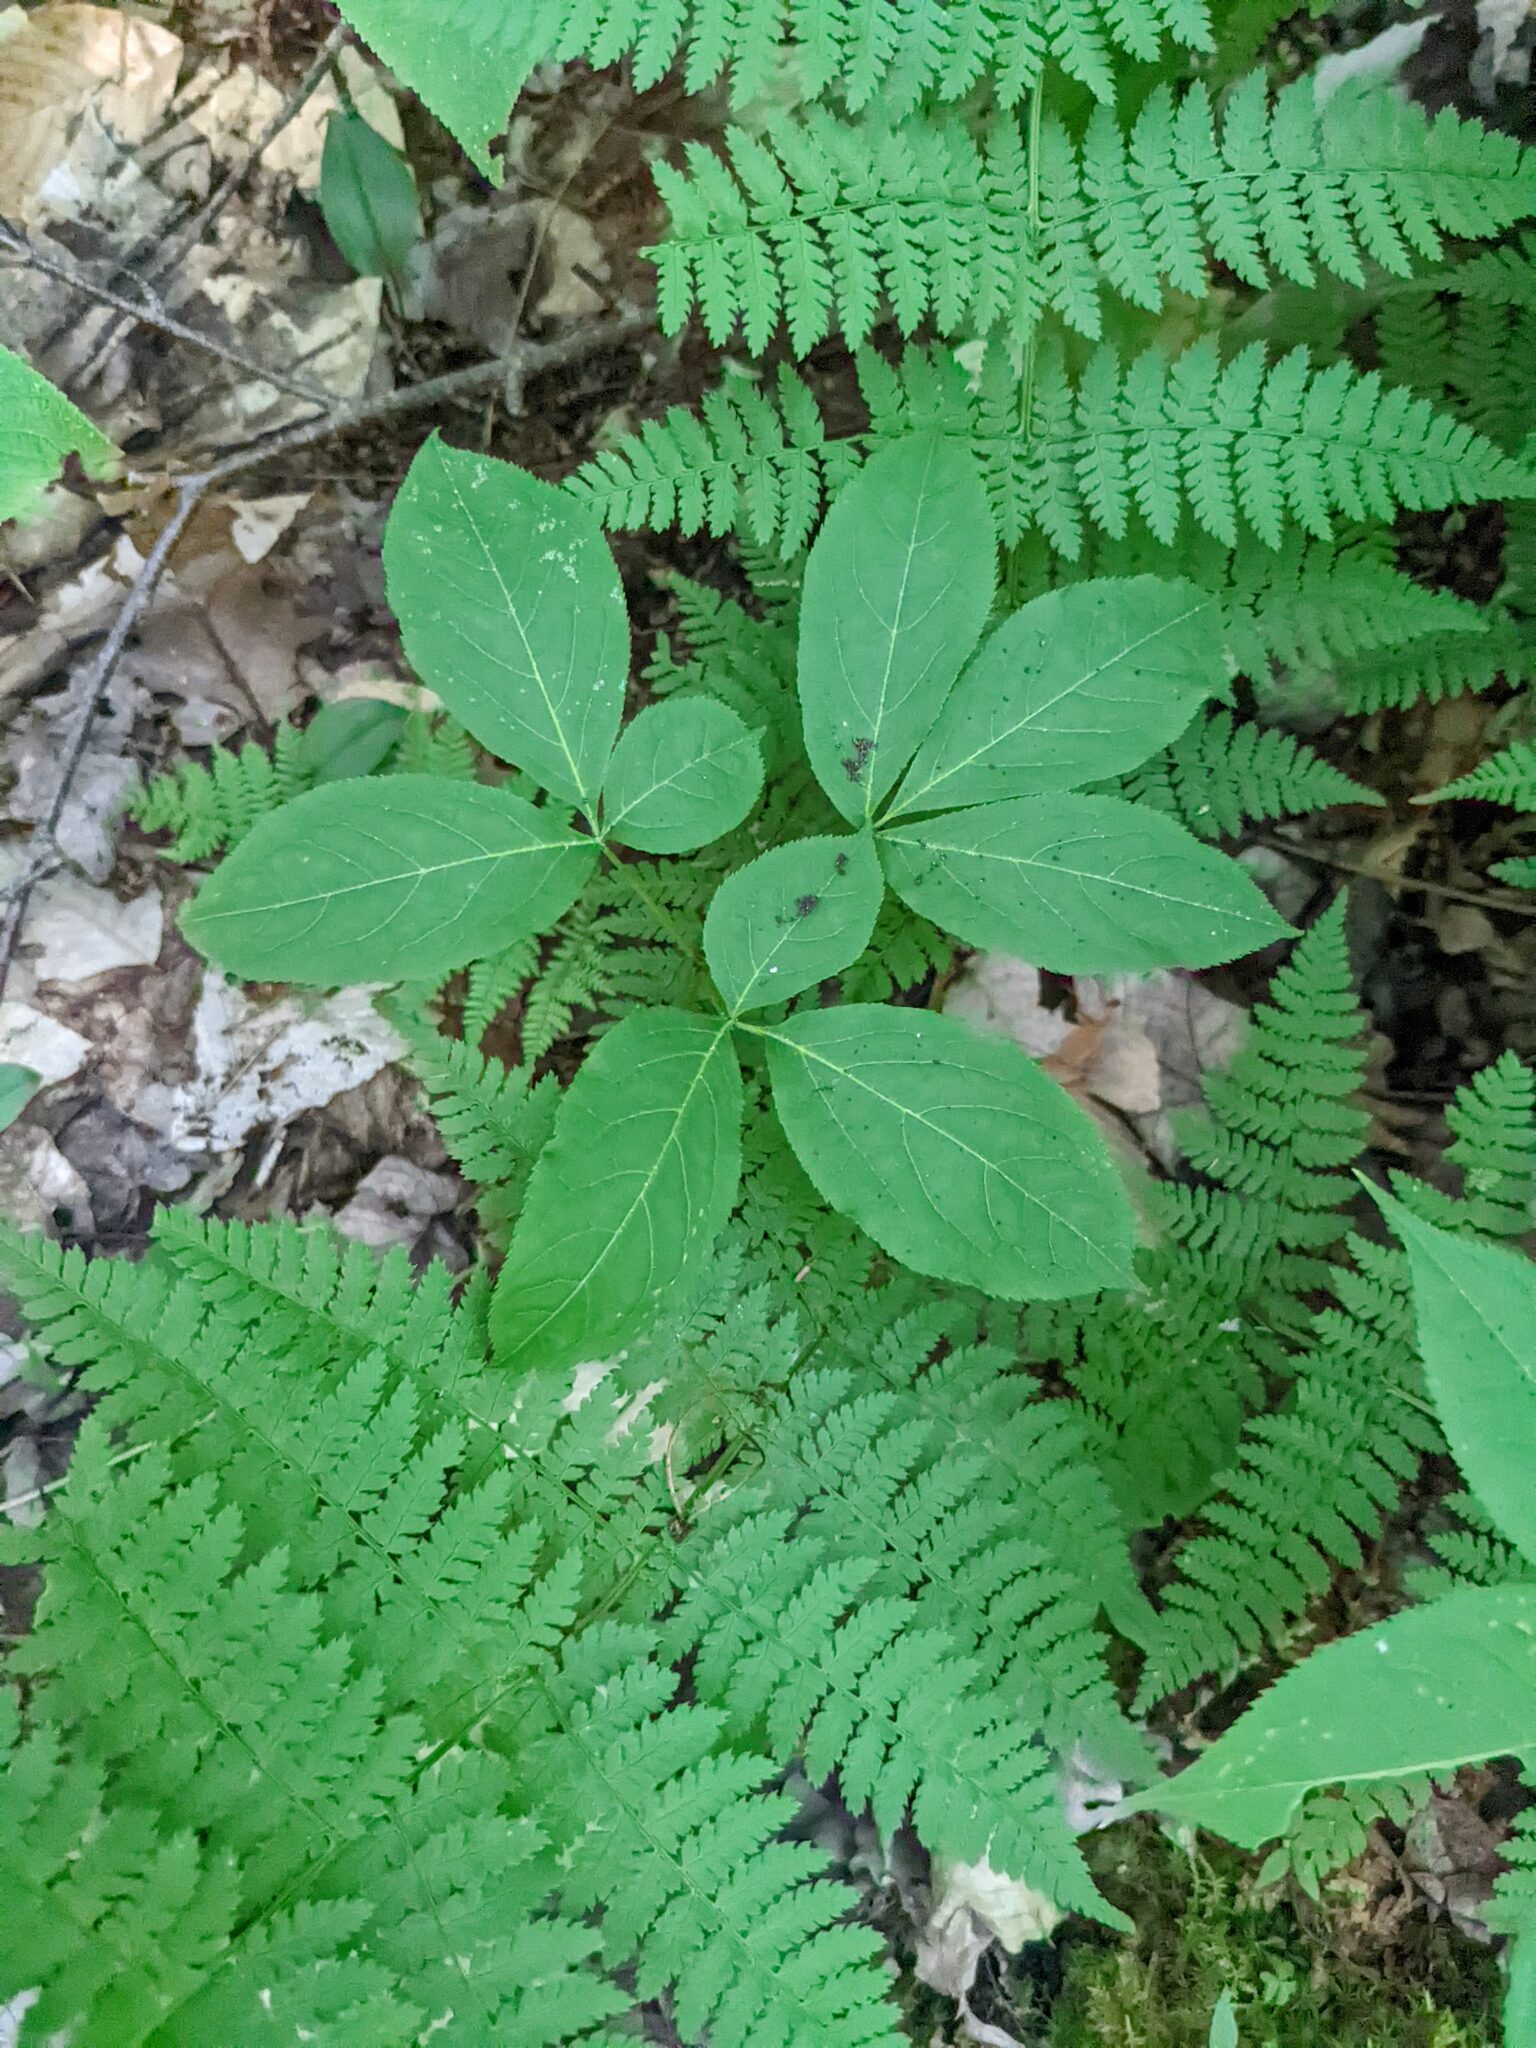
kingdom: Plantae
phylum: Tracheophyta
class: Magnoliopsida
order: Apiales
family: Araliaceae
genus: Aralia
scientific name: Aralia nudicaulis
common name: Wild sarsaparilla
